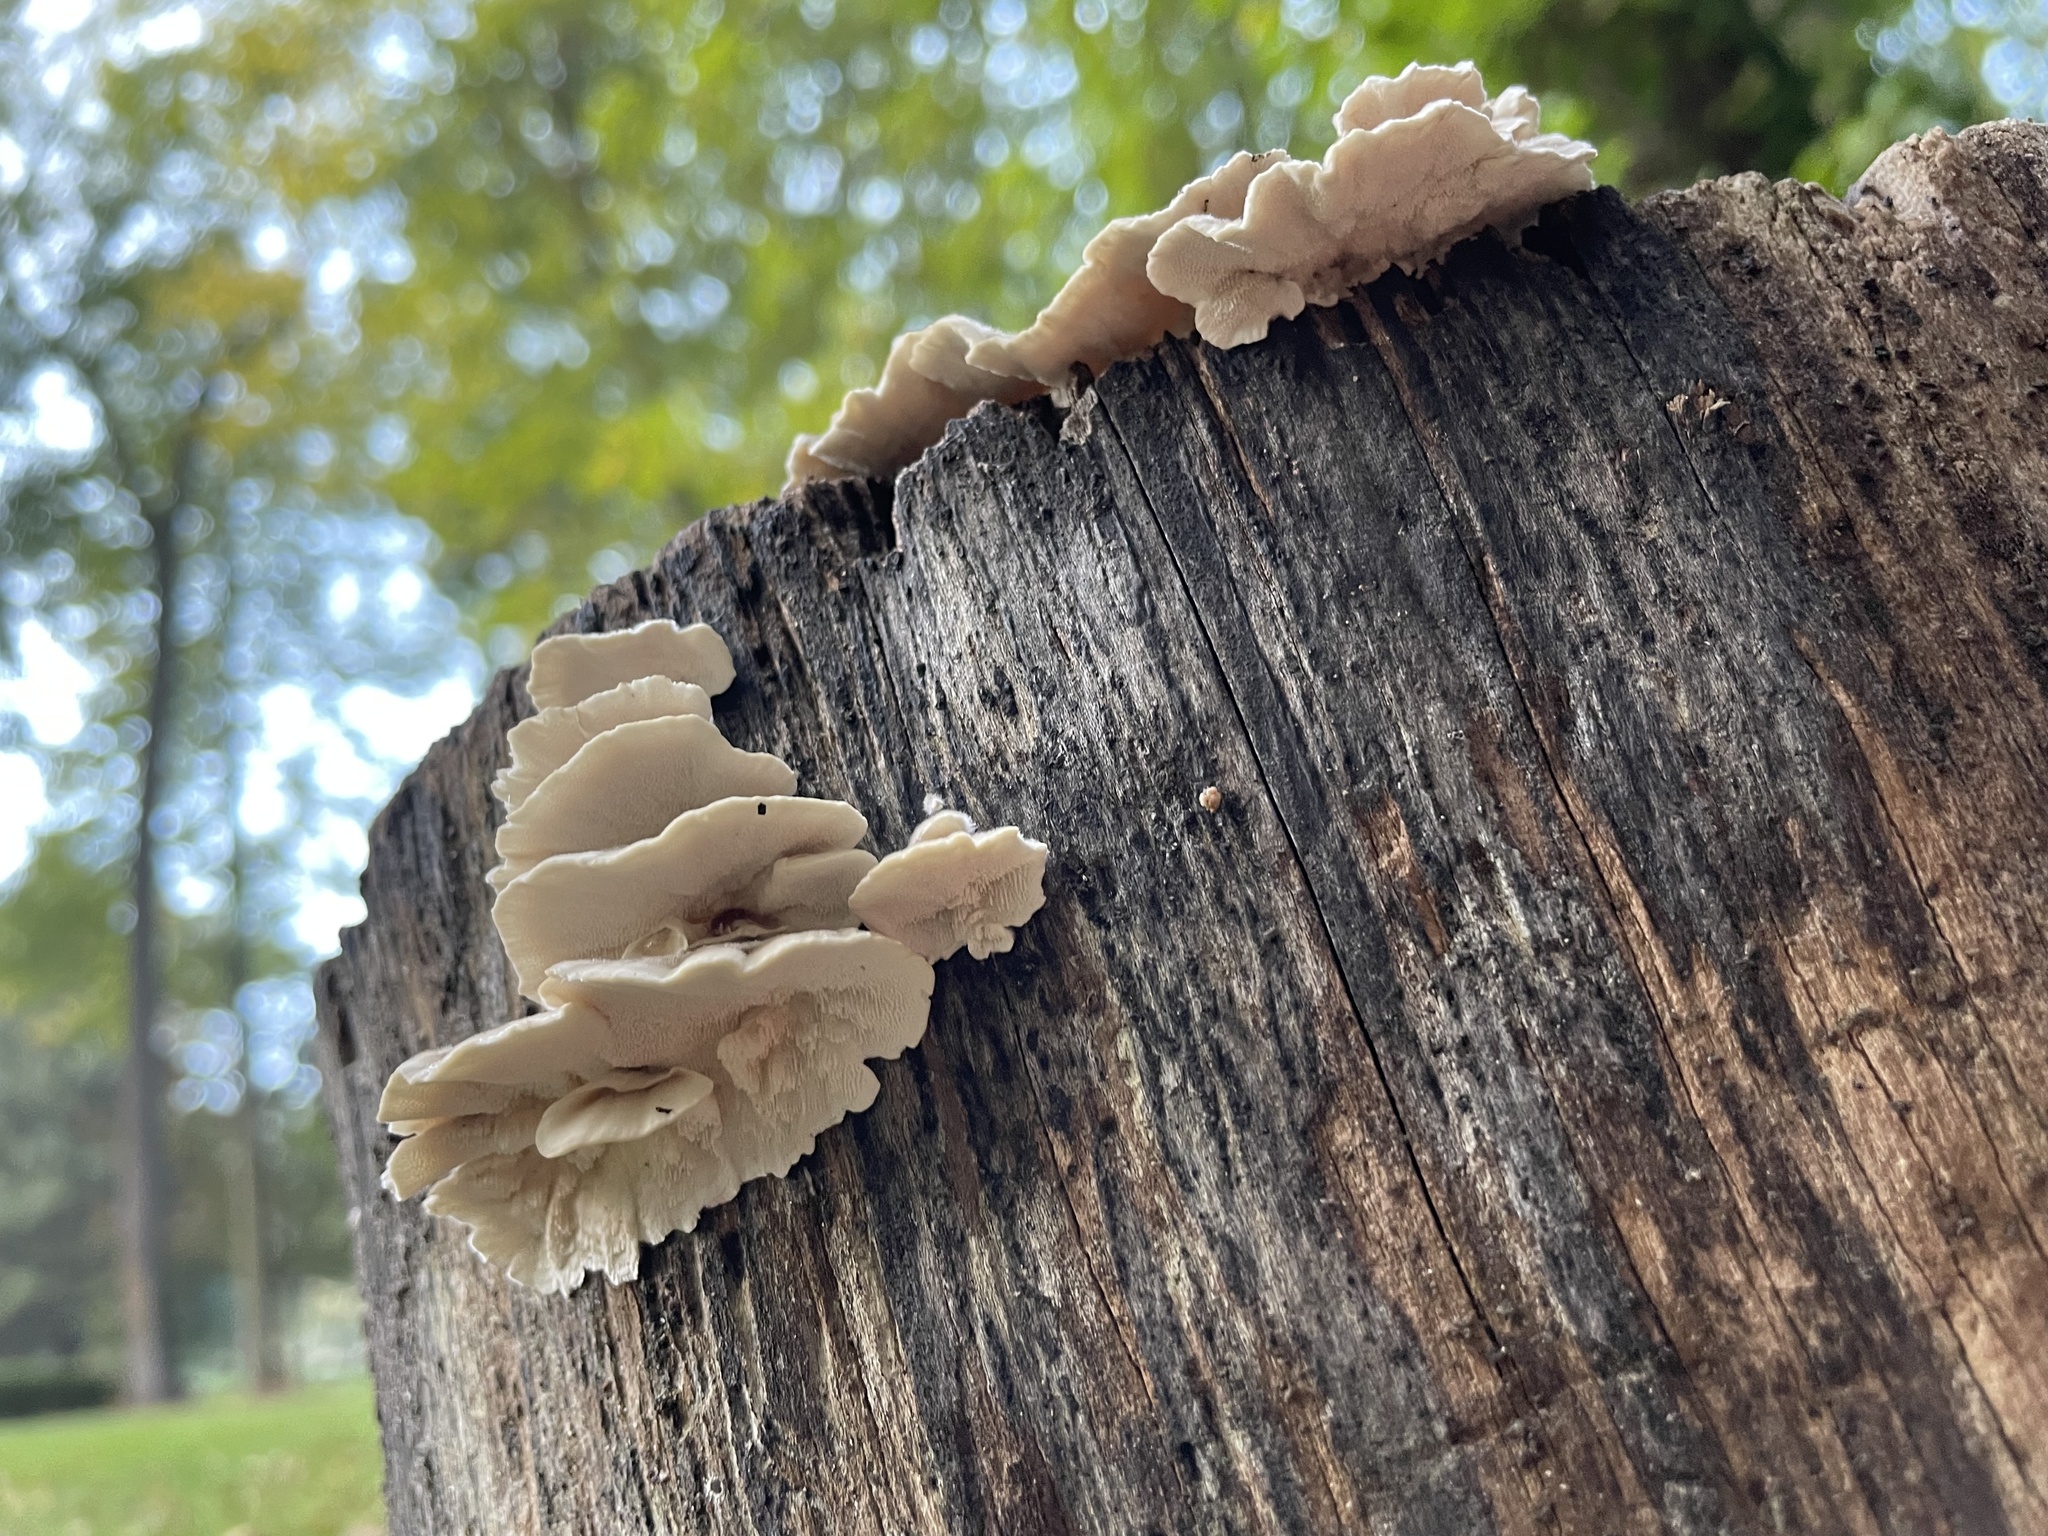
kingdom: Fungi
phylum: Basidiomycota
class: Agaricomycetes
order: Polyporales
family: Polyporaceae
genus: Trametes
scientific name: Trametes versicolor
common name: Turkeytail
